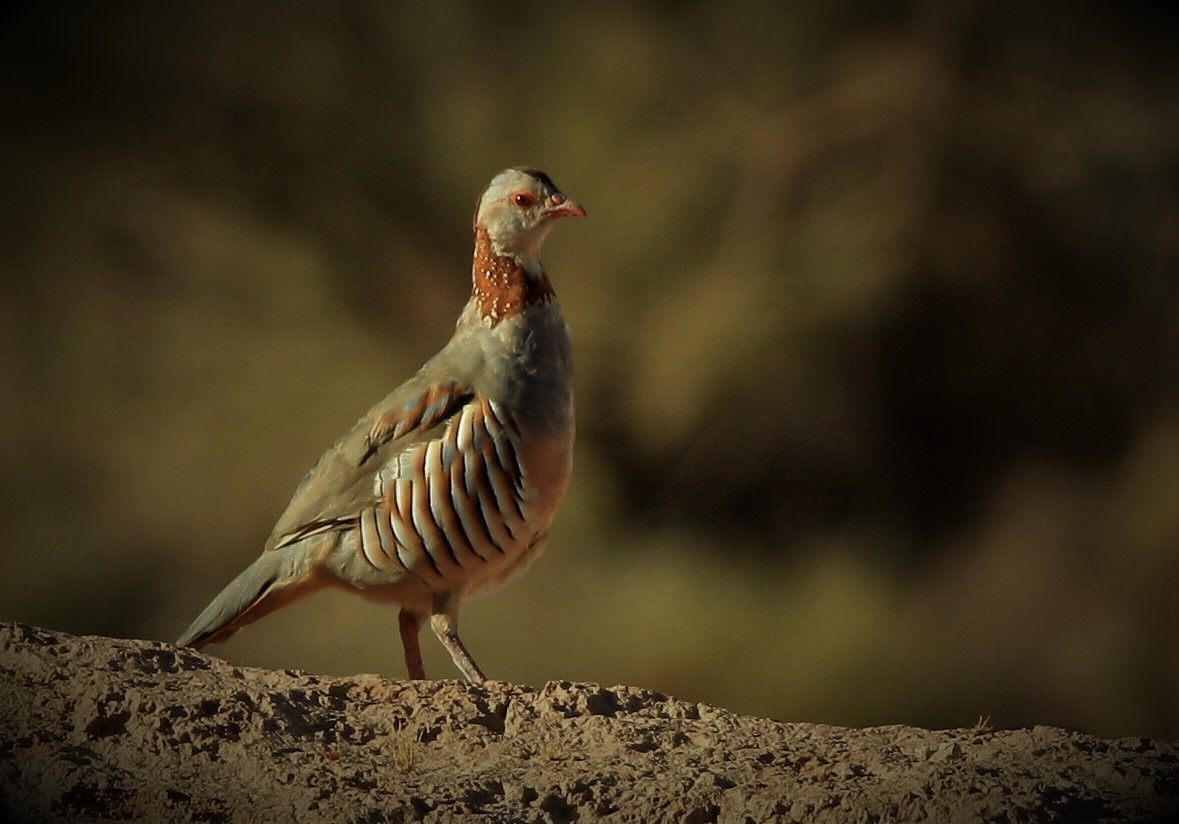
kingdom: Animalia
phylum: Chordata
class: Aves
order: Galliformes
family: Phasianidae
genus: Alectoris
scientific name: Alectoris barbara
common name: Barbary partridge
